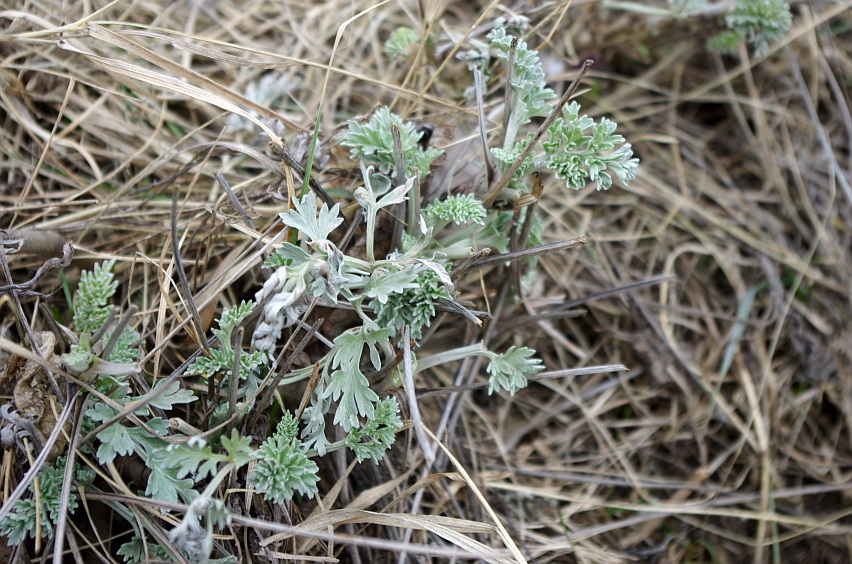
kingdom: Plantae
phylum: Tracheophyta
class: Magnoliopsida
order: Asterales
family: Asteraceae
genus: Artemisia
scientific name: Artemisia absinthium
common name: Wormwood
